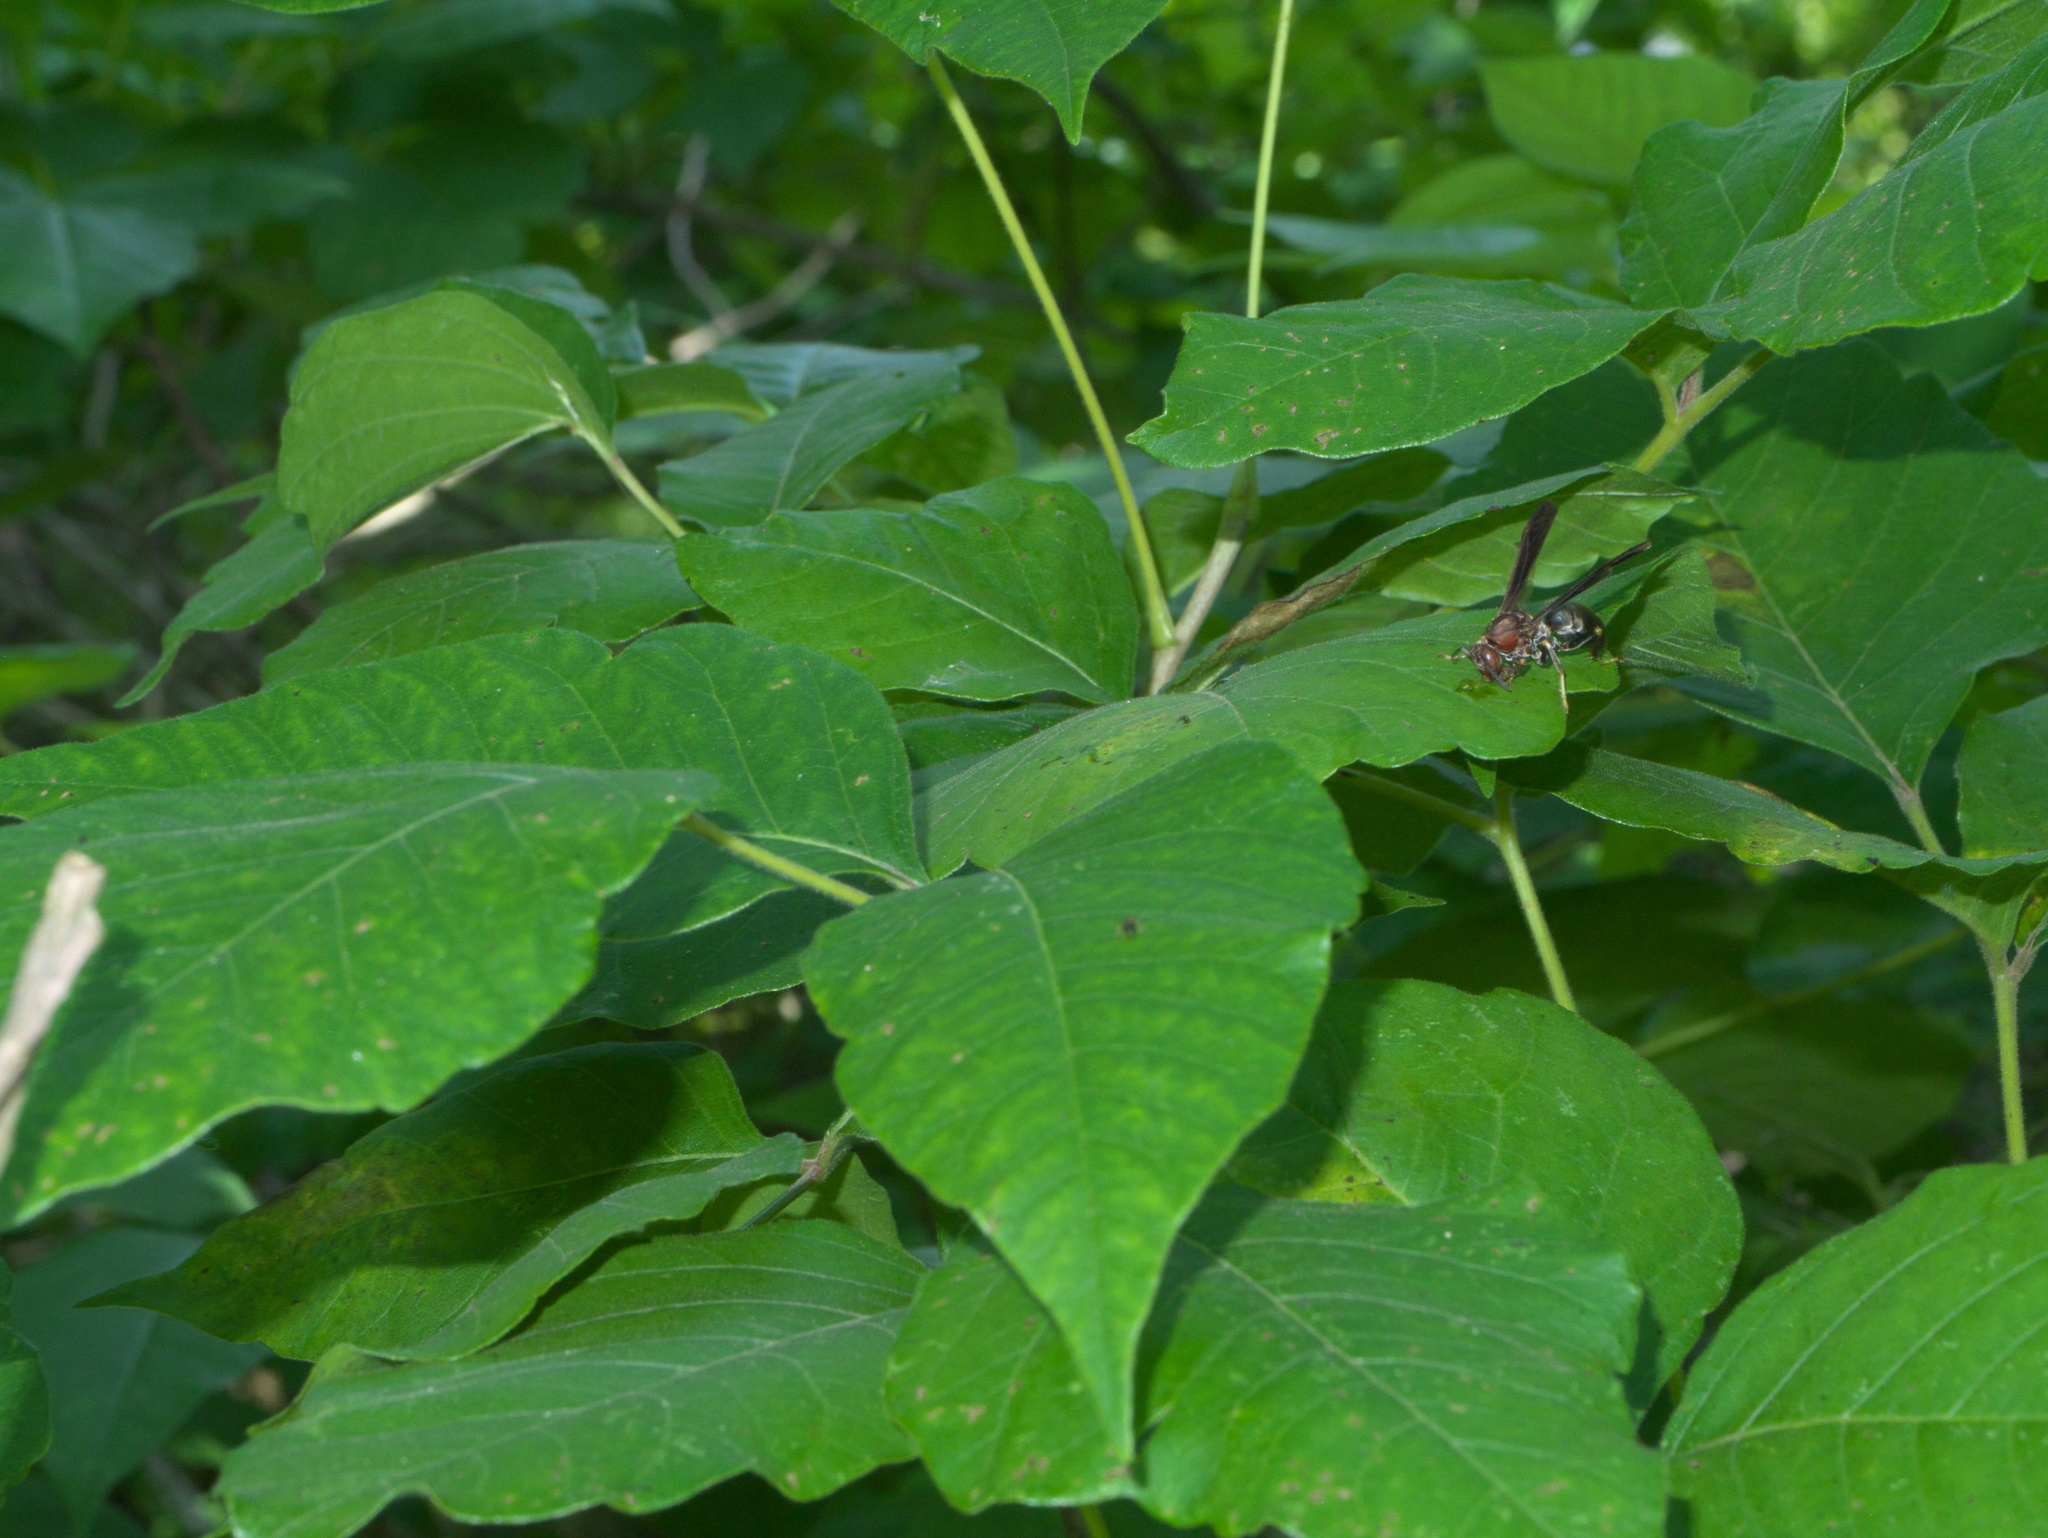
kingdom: Plantae
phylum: Tracheophyta
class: Magnoliopsida
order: Sapindales
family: Anacardiaceae
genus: Toxicodendron
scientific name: Toxicodendron radicans
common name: Poison ivy
